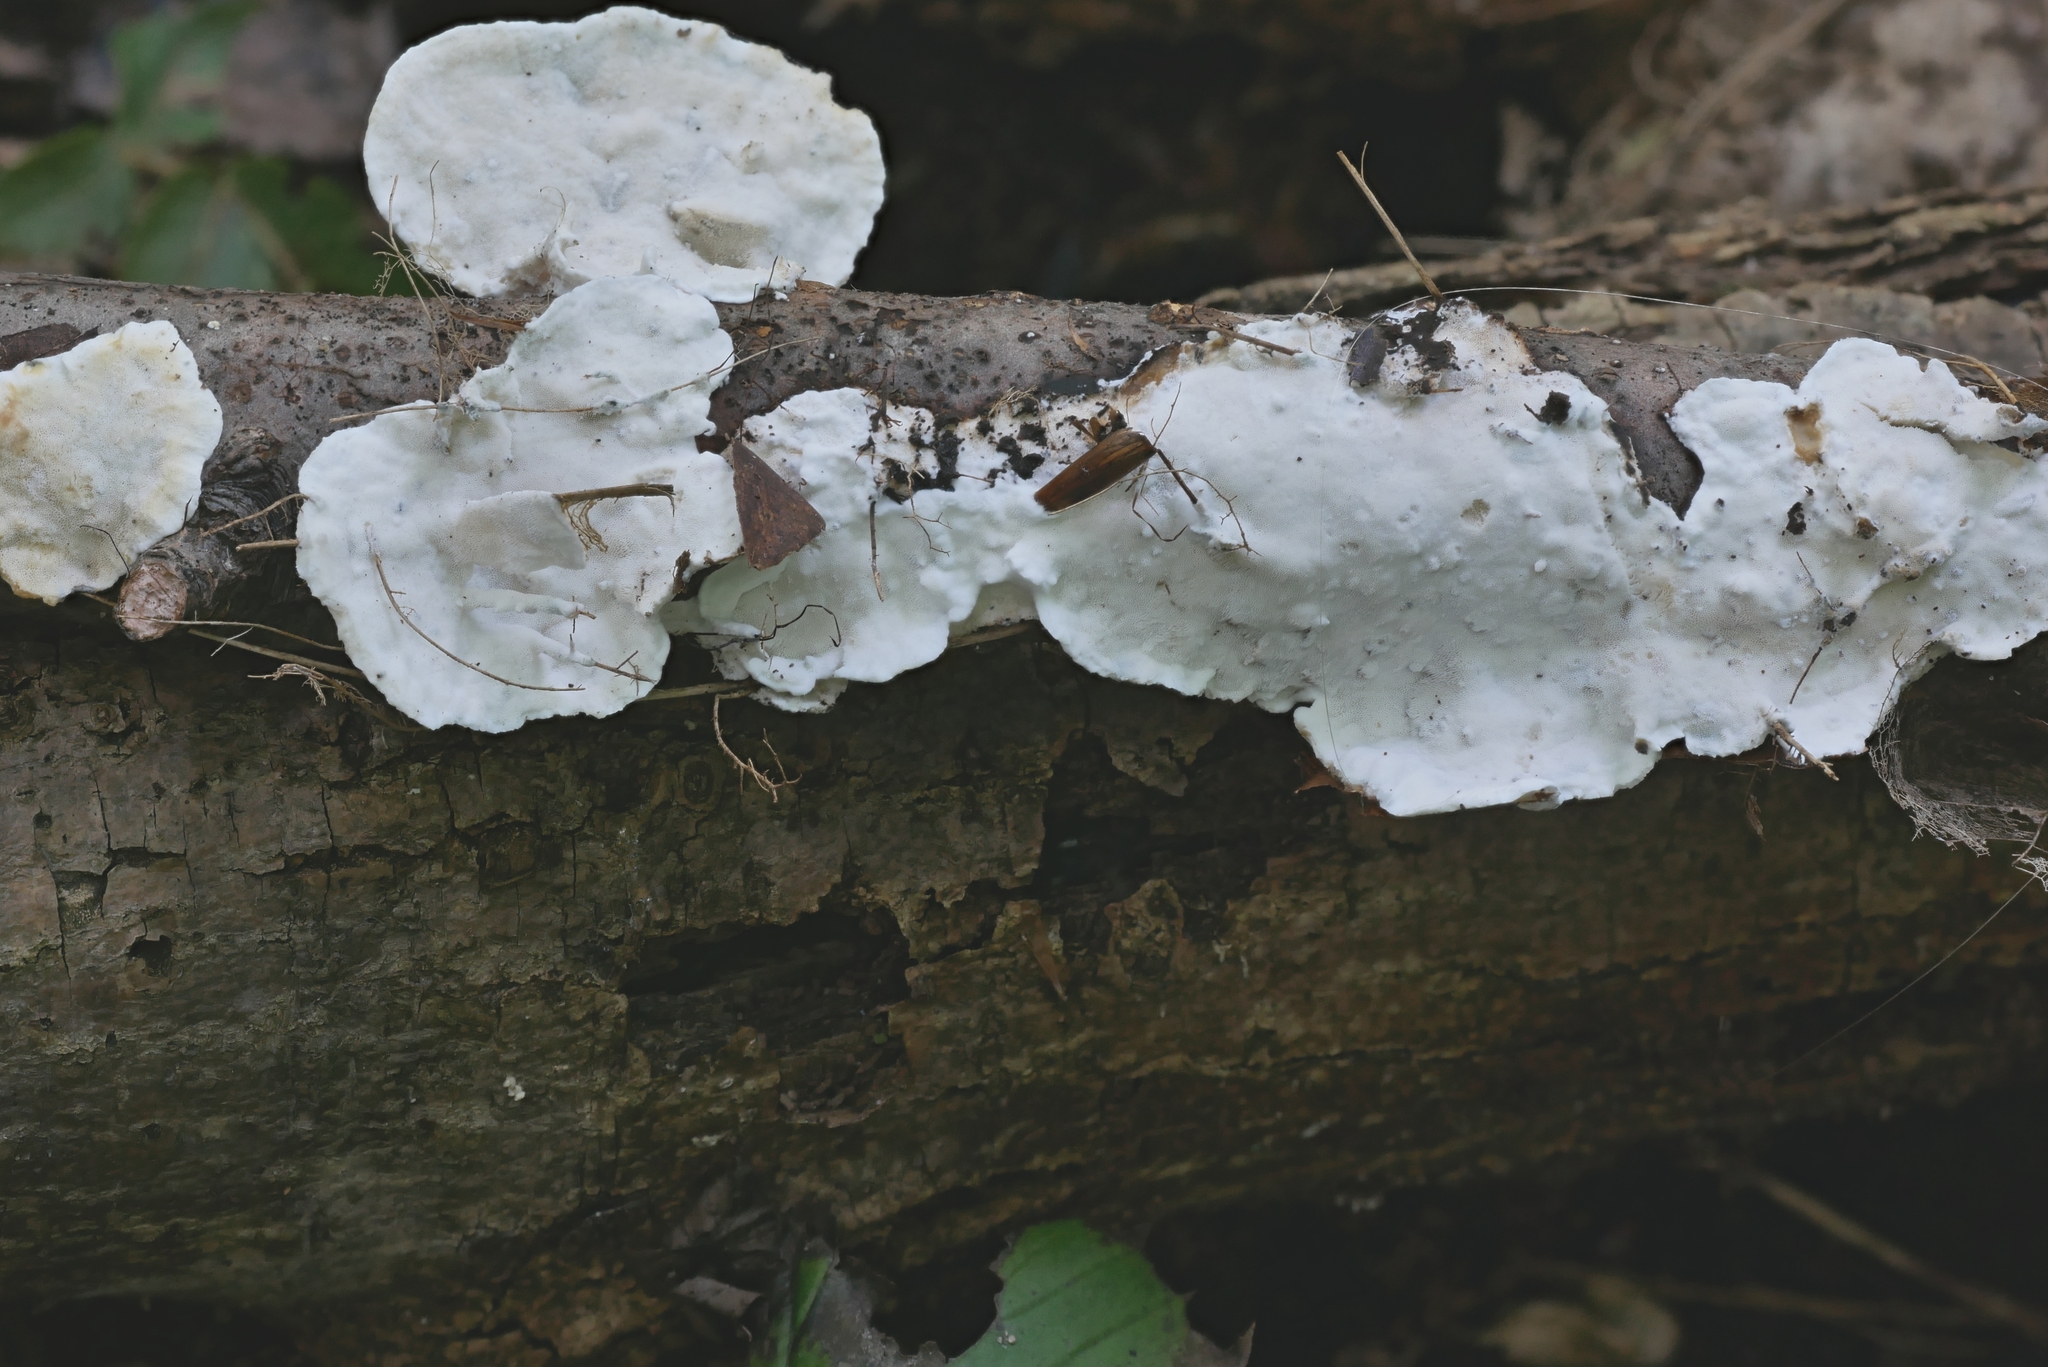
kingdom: Fungi
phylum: Basidiomycota
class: Agaricomycetes
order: Polyporales
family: Incrustoporiaceae
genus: Skeletocutis
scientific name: Skeletocutis semipileata
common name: Hazel bracket
